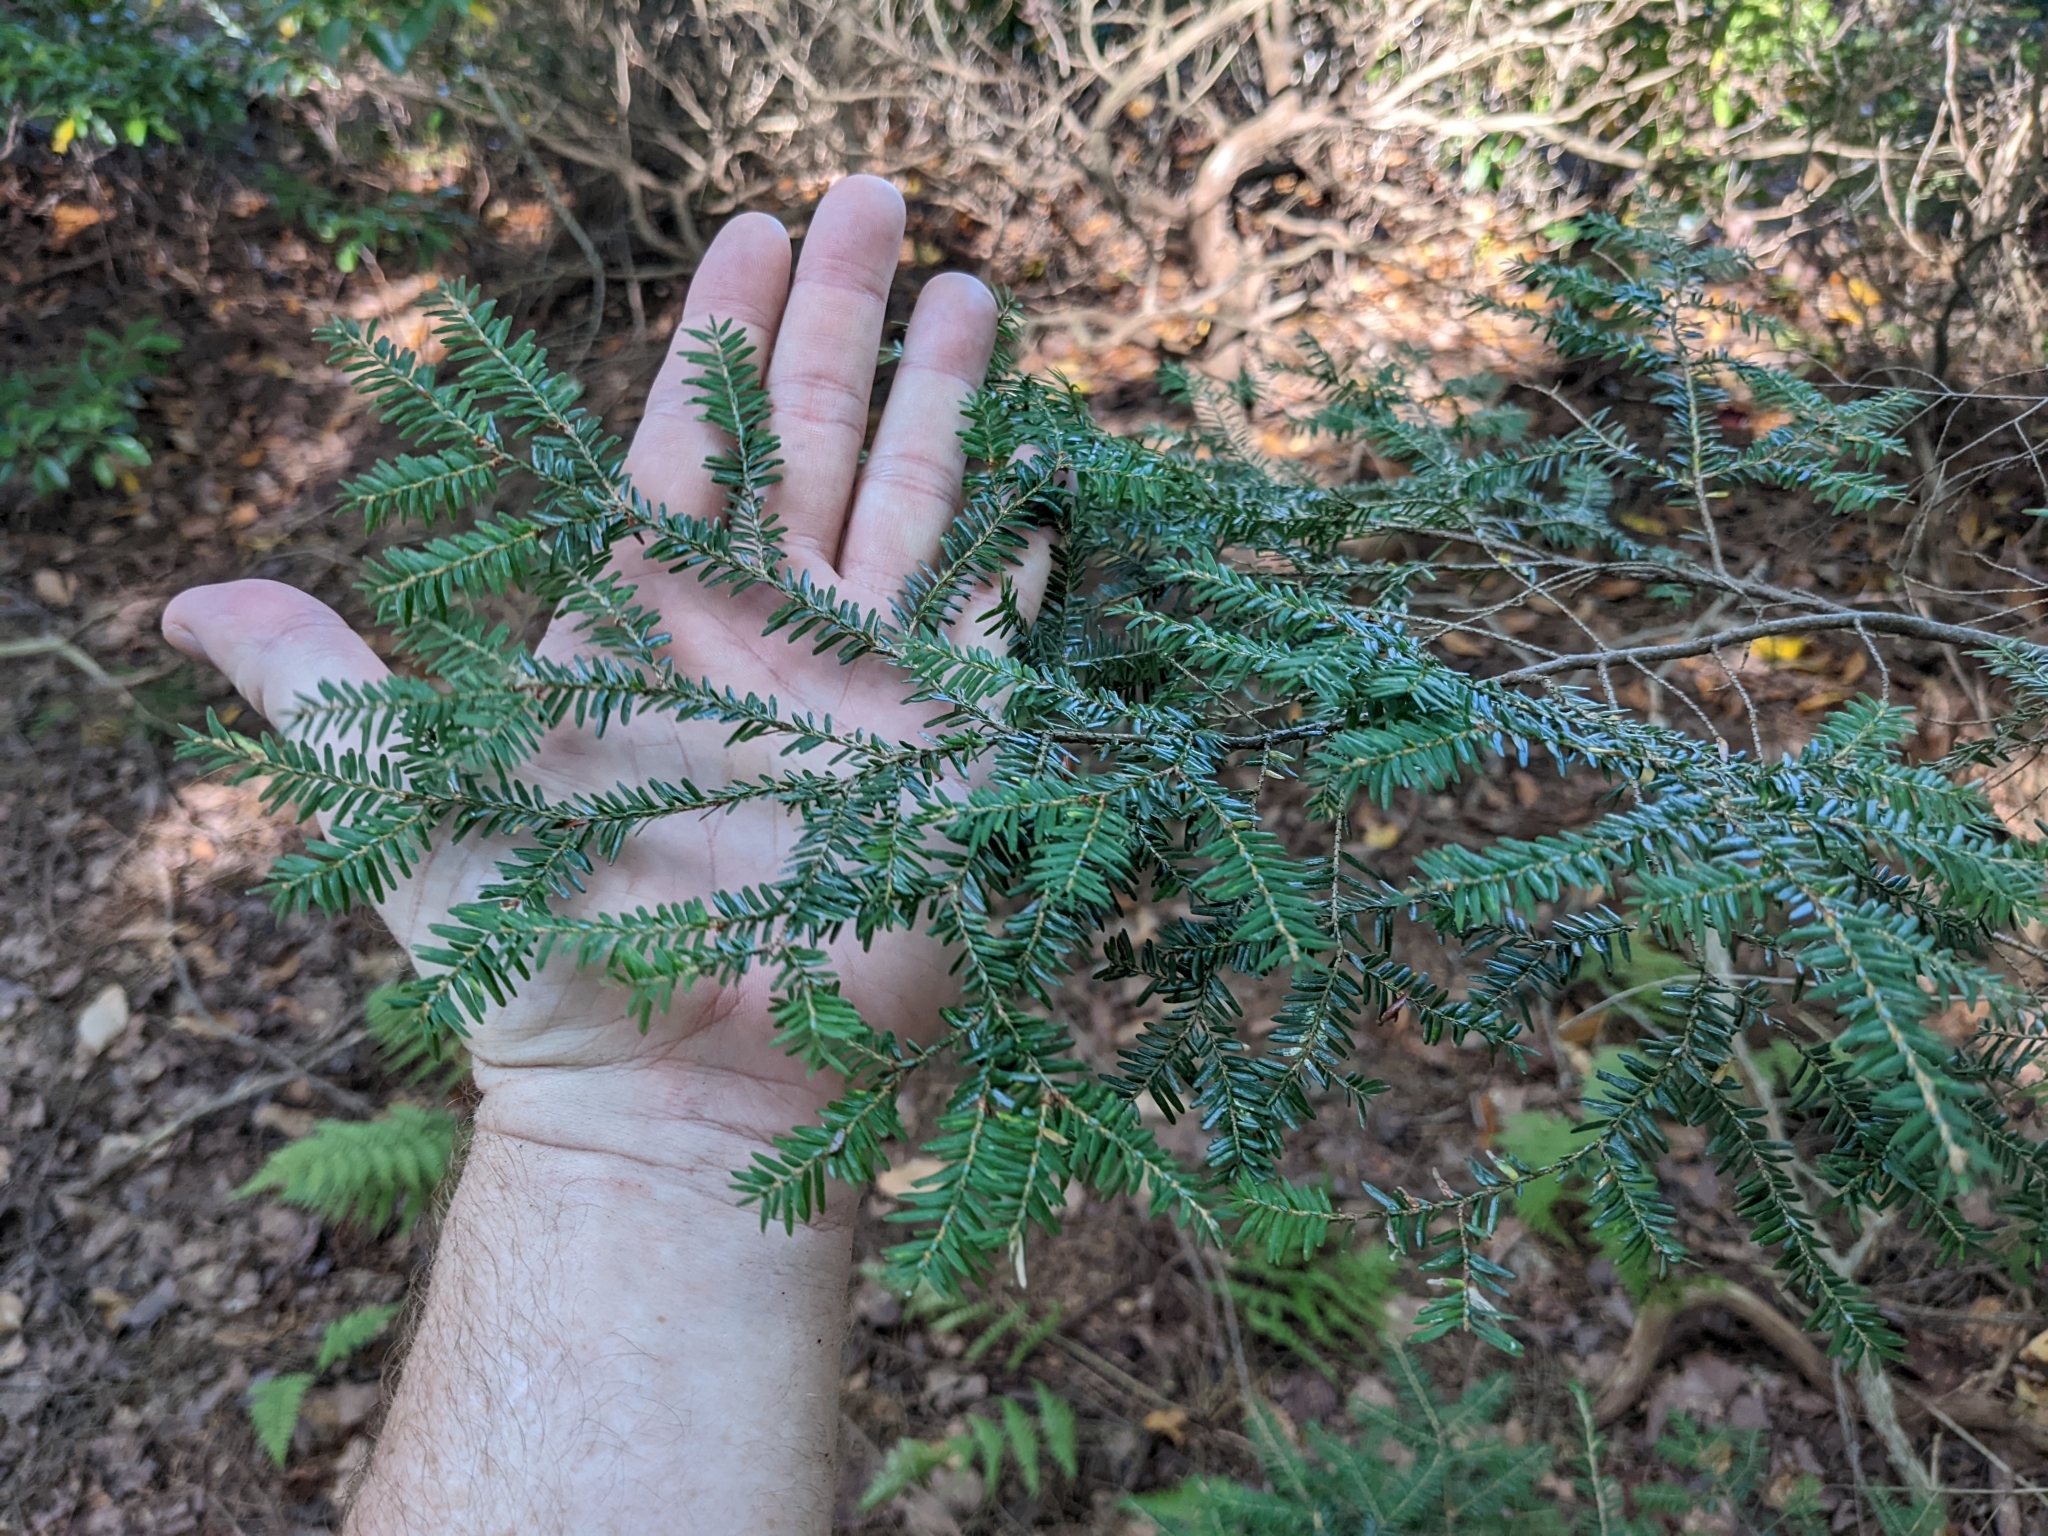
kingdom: Plantae
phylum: Tracheophyta
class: Pinopsida
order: Pinales
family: Pinaceae
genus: Tsuga
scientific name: Tsuga canadensis
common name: Eastern hemlock
